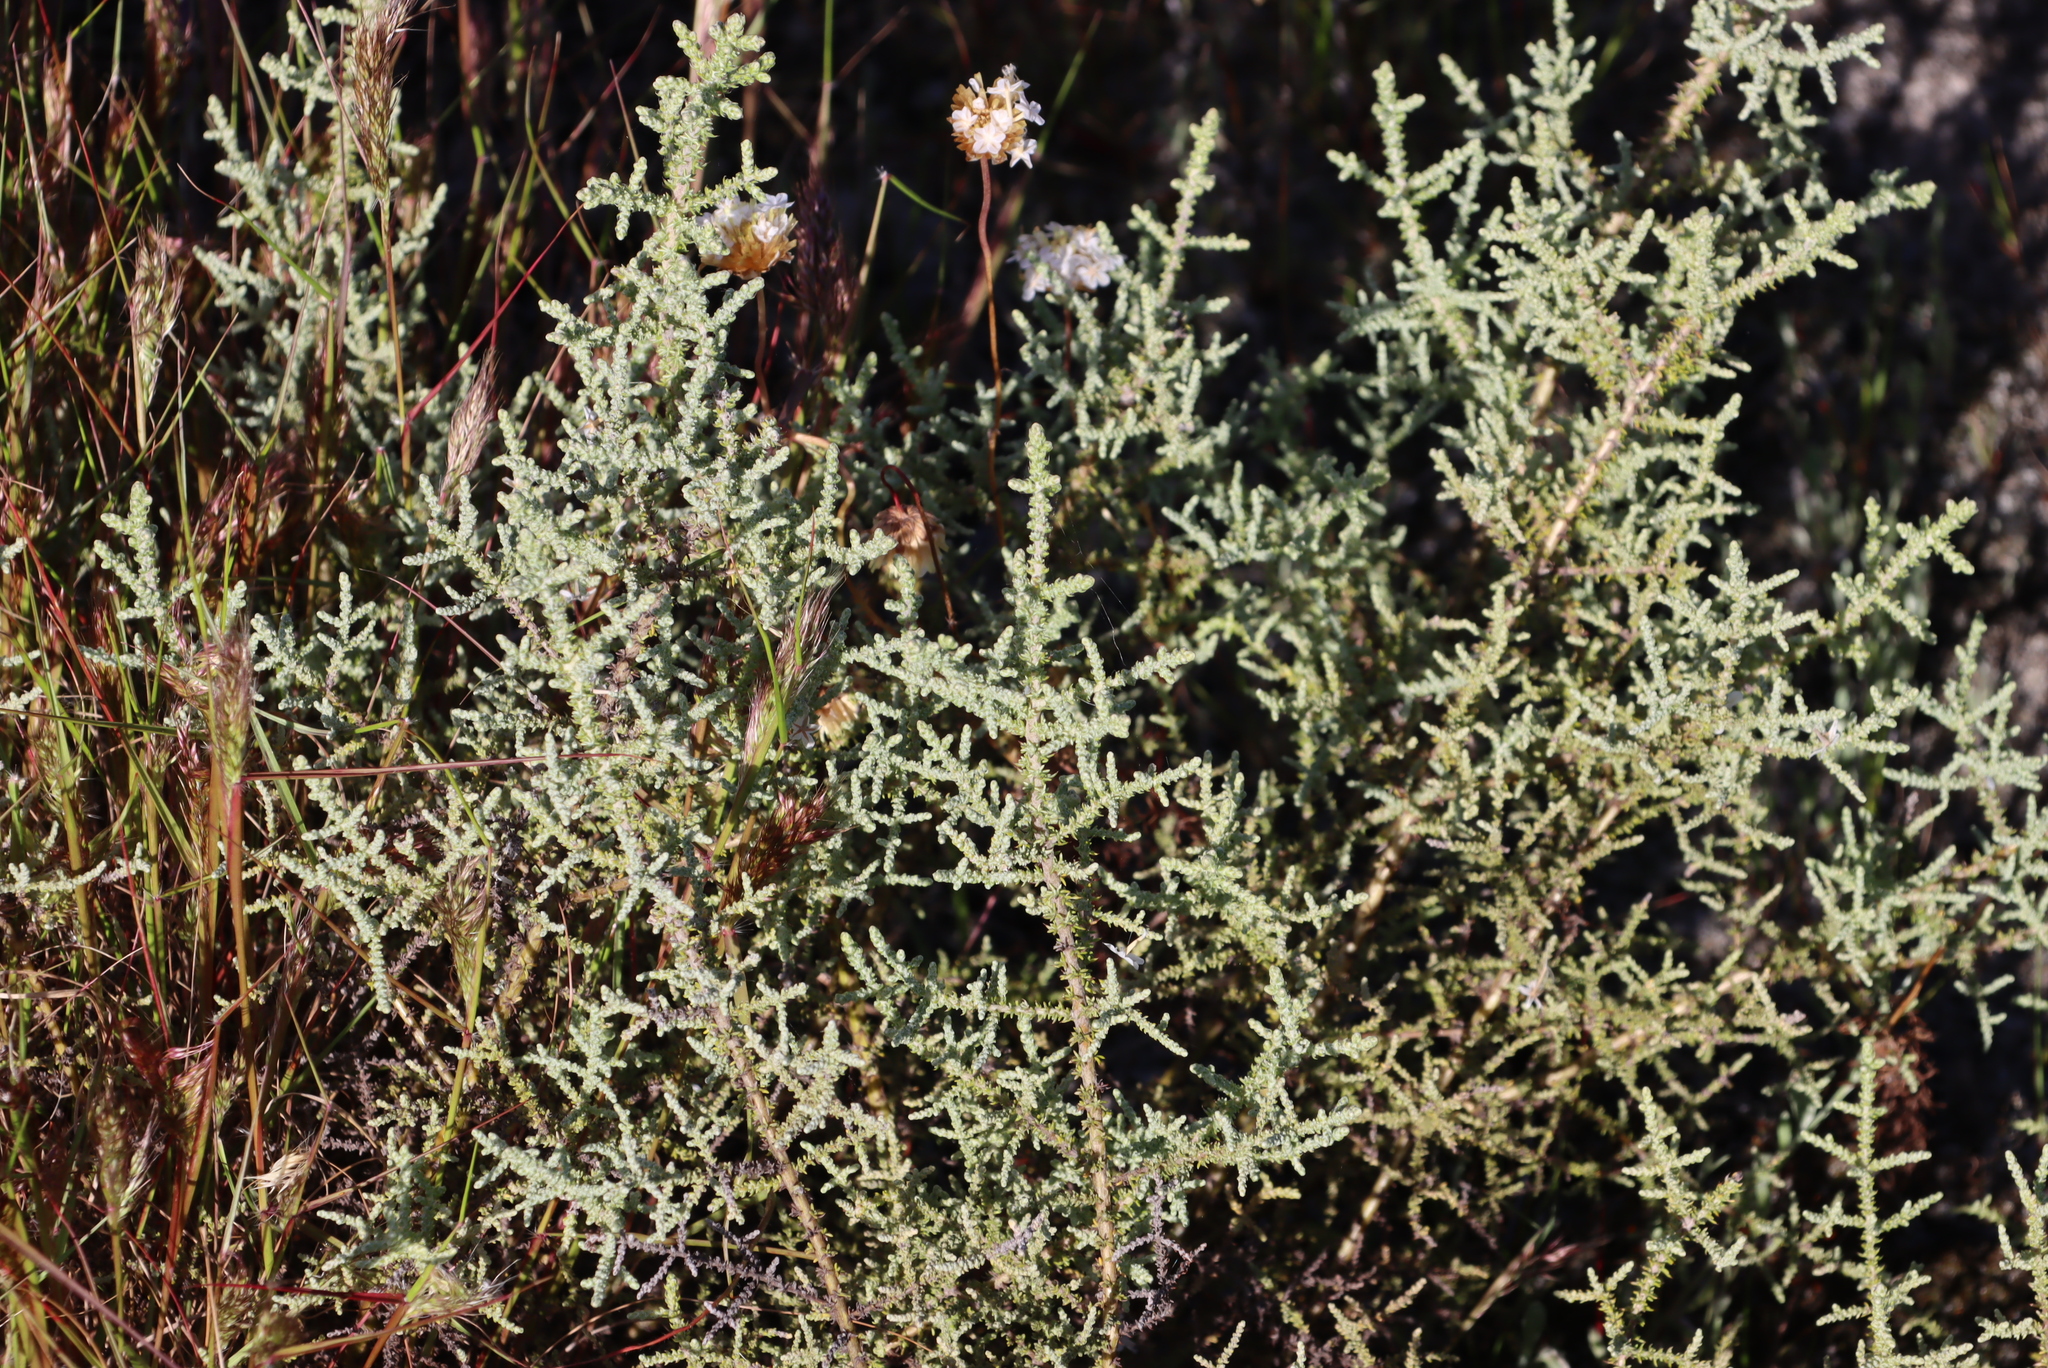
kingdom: Plantae
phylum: Tracheophyta
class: Magnoliopsida
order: Asterales
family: Asteraceae
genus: Seriphium
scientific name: Seriphium plumosum
